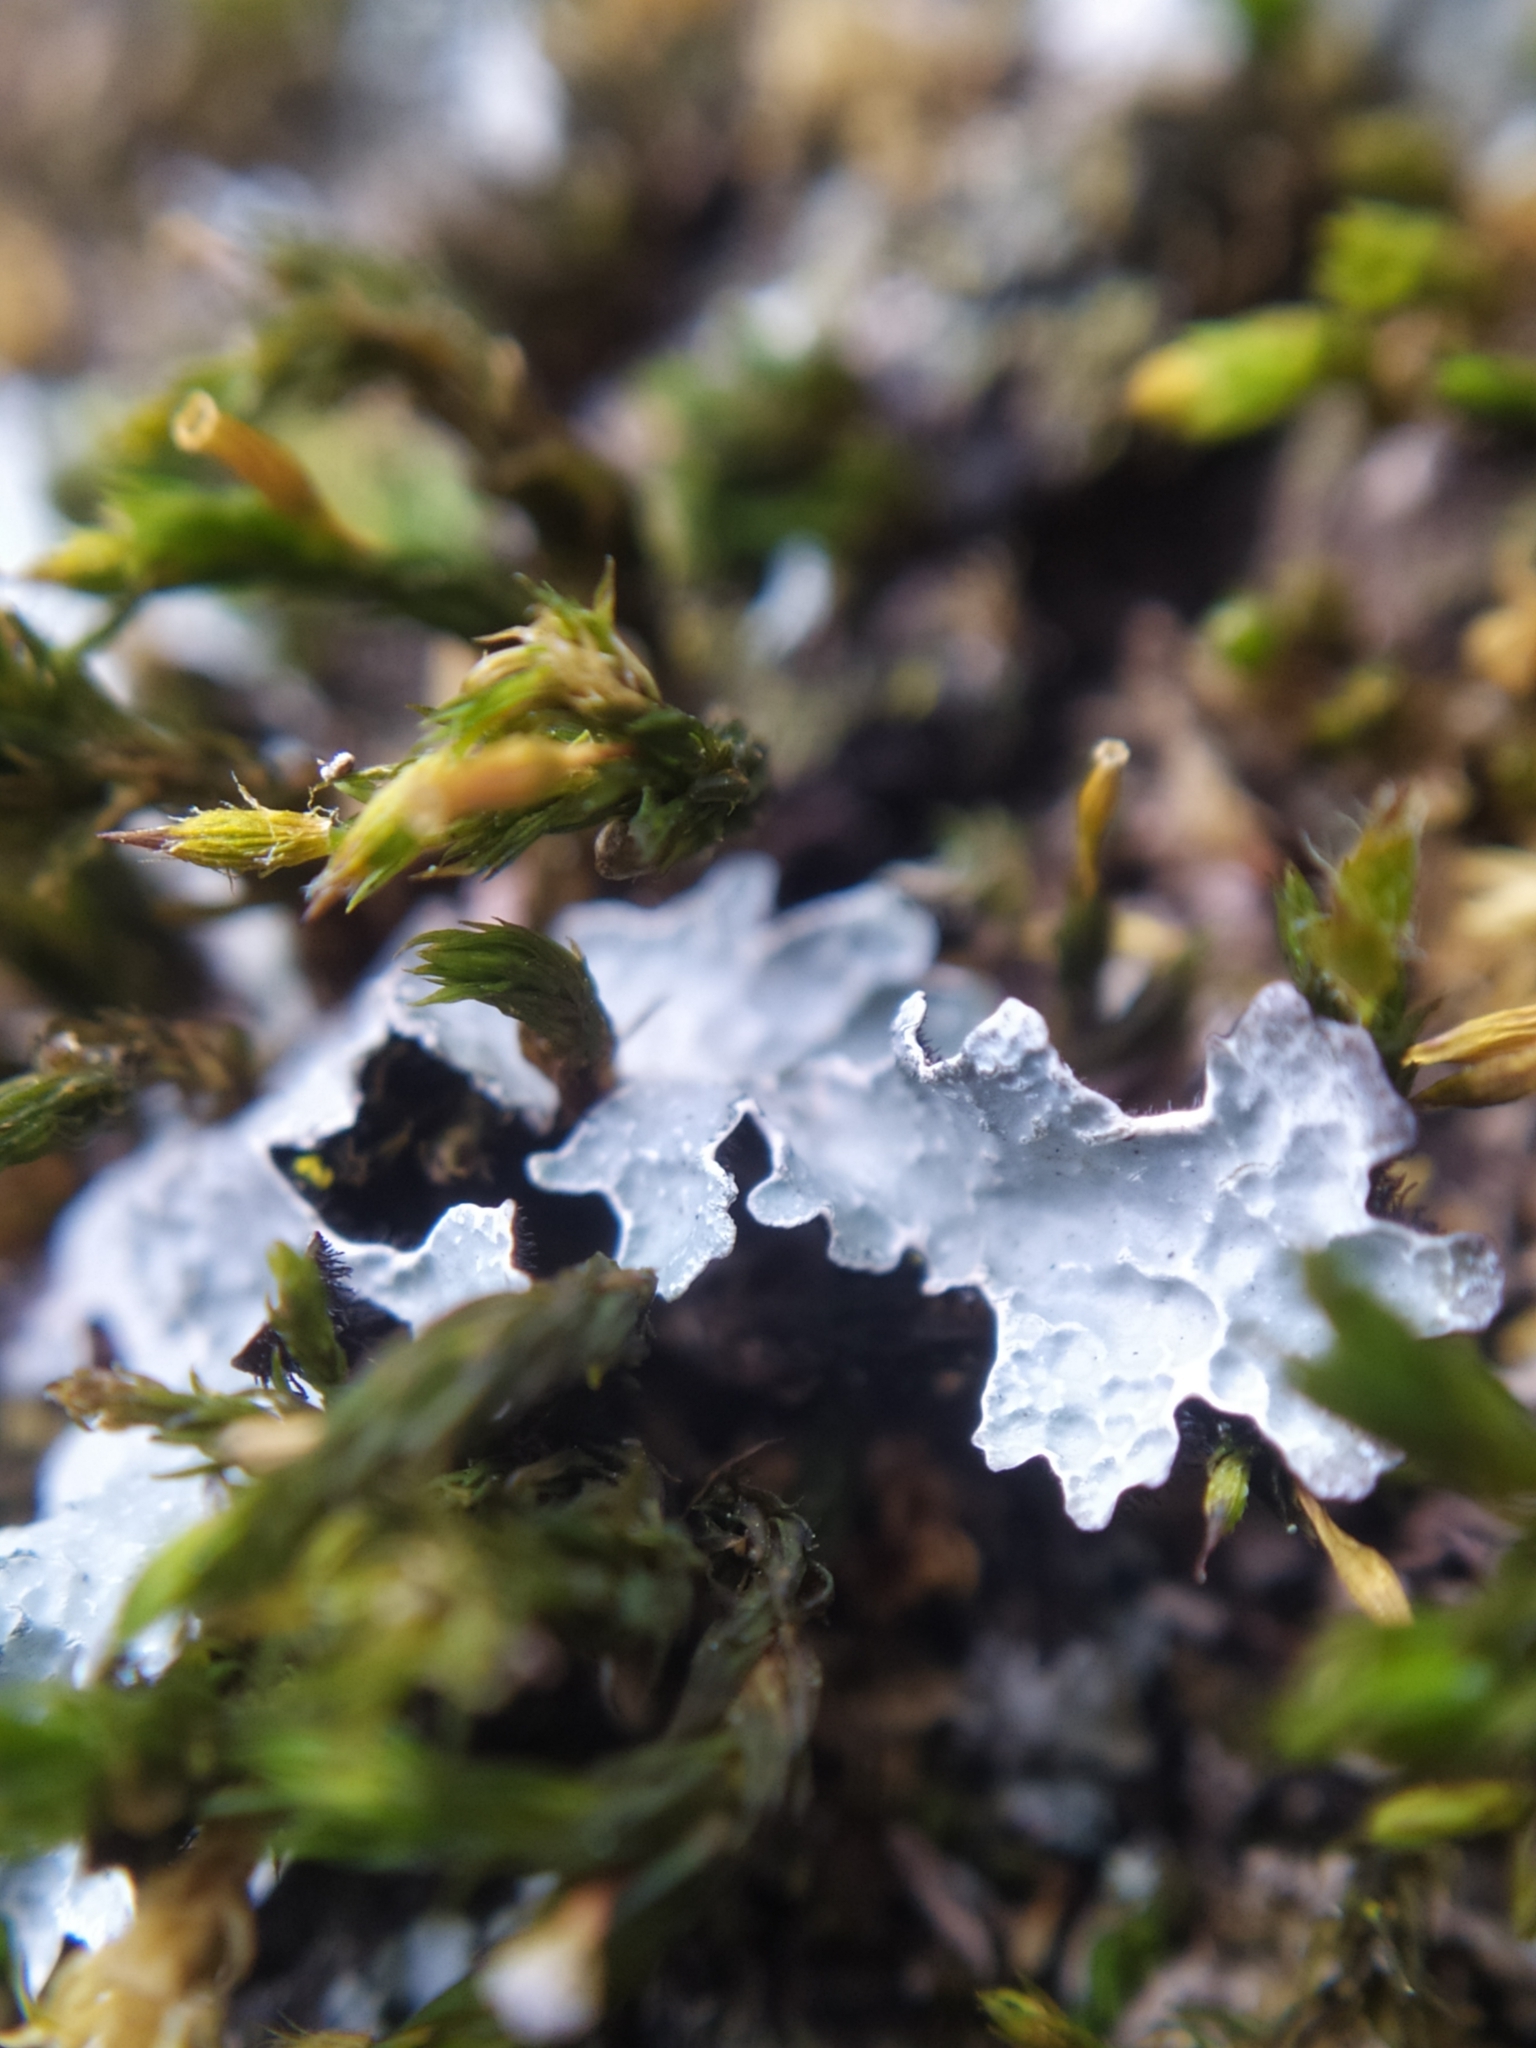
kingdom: Fungi
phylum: Ascomycota
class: Lecanoromycetes
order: Lecanorales
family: Parmeliaceae
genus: Parmelia
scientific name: Parmelia sulcata
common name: Netted shield lichen
